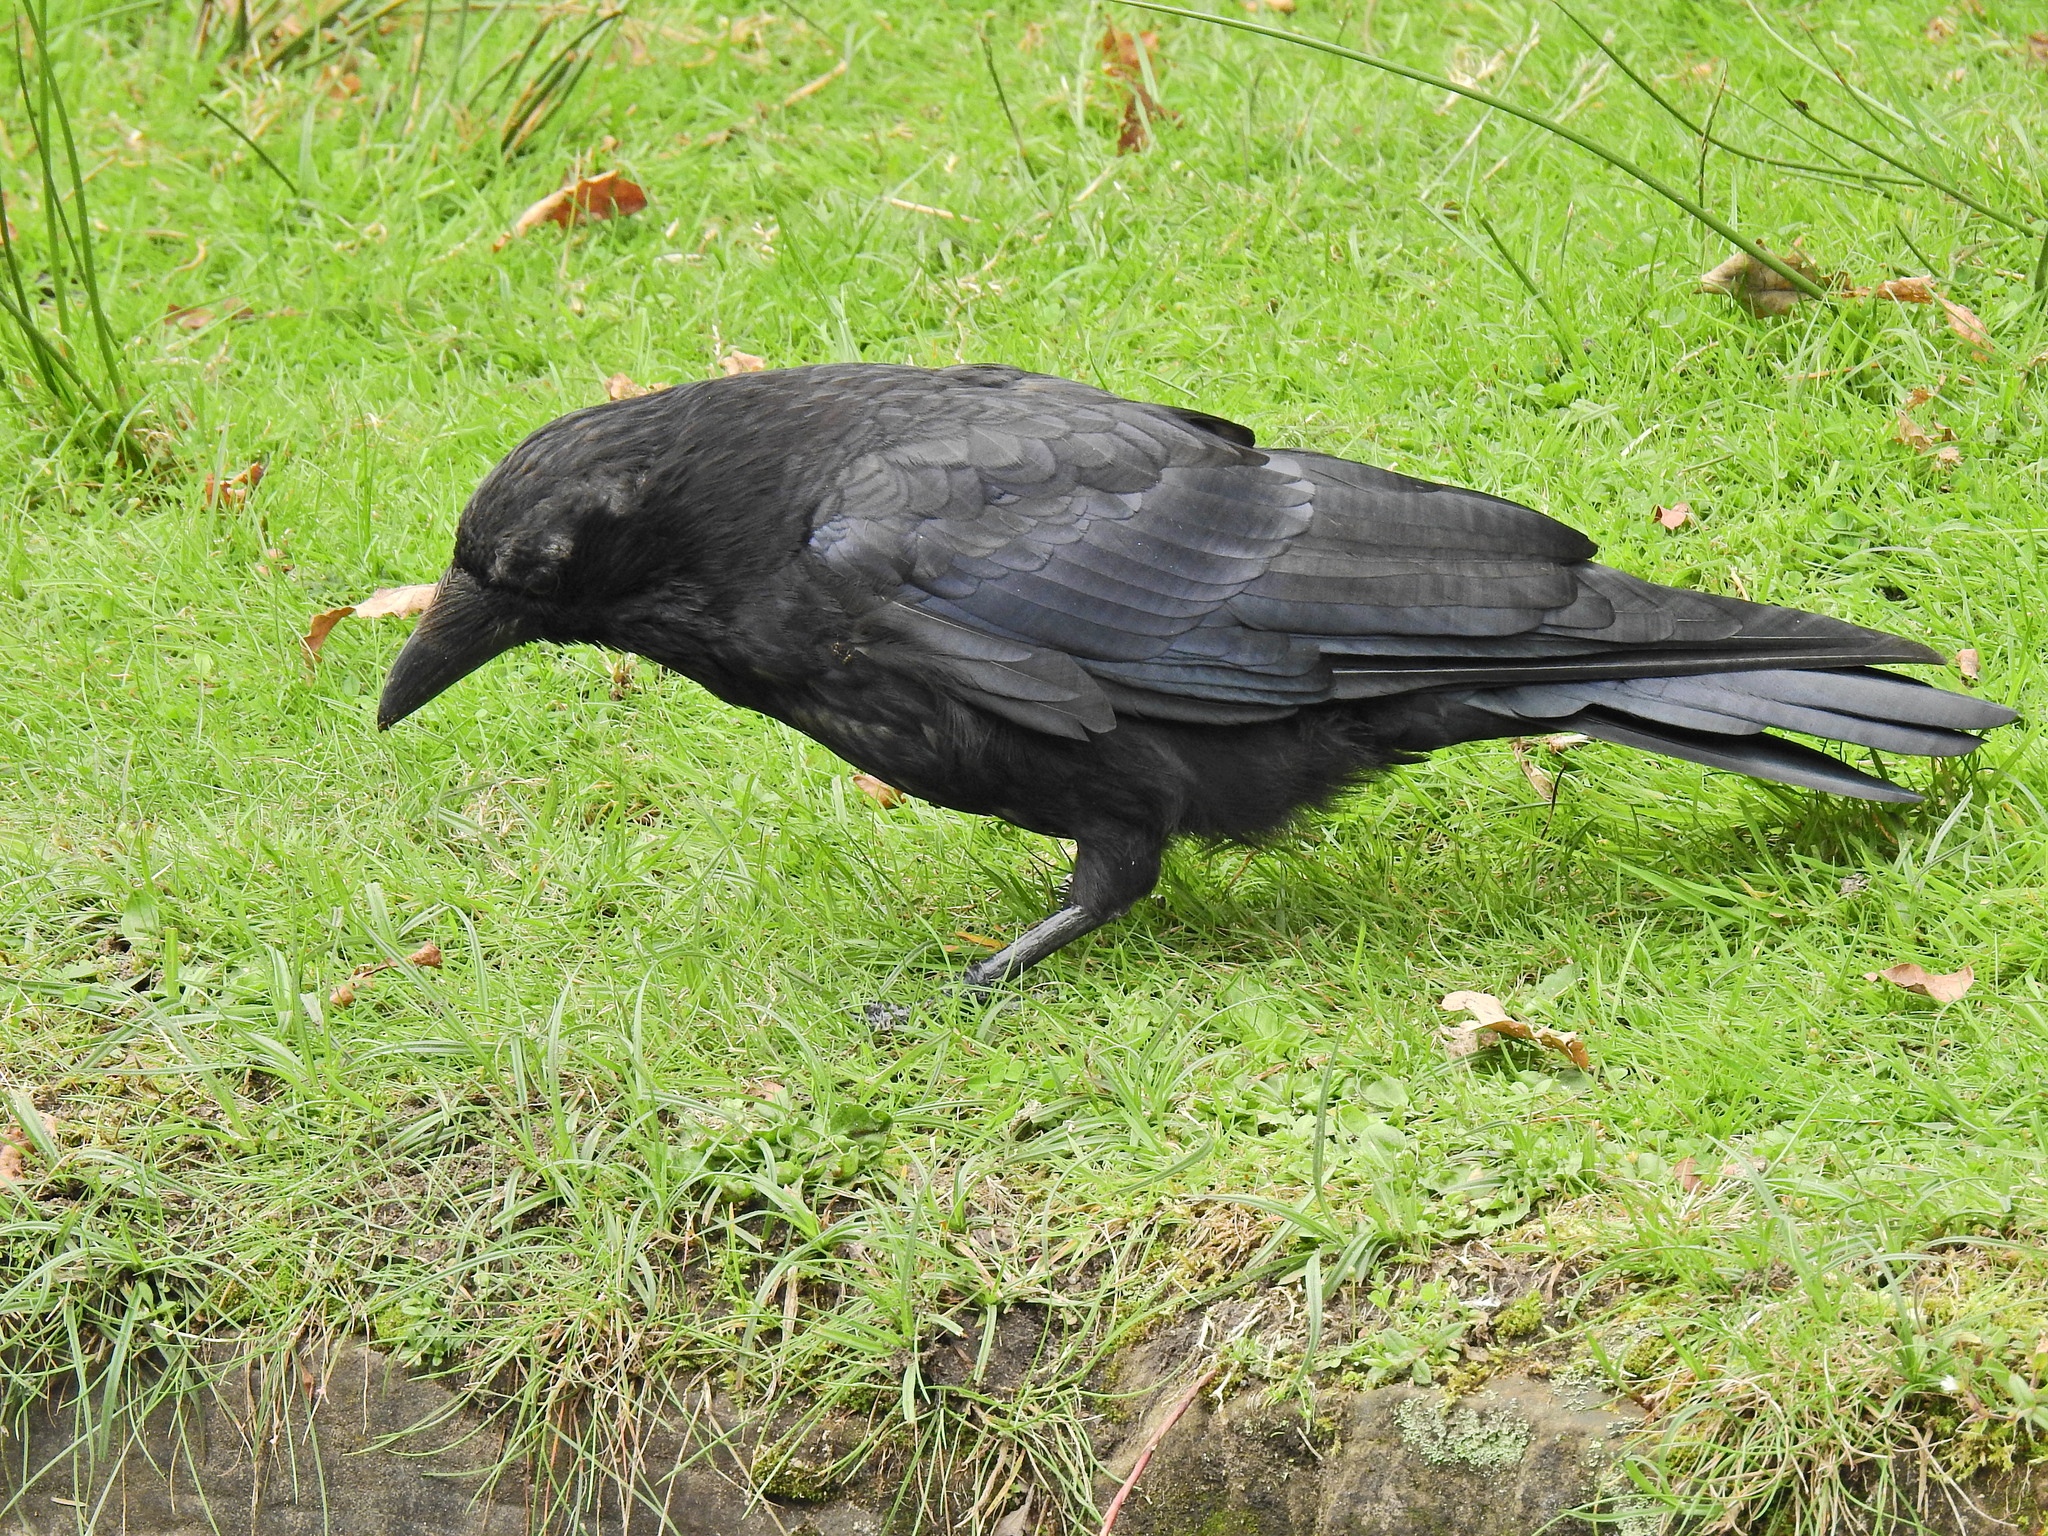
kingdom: Animalia
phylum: Chordata
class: Aves
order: Passeriformes
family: Corvidae
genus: Corvus
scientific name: Corvus corone
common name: Carrion crow
